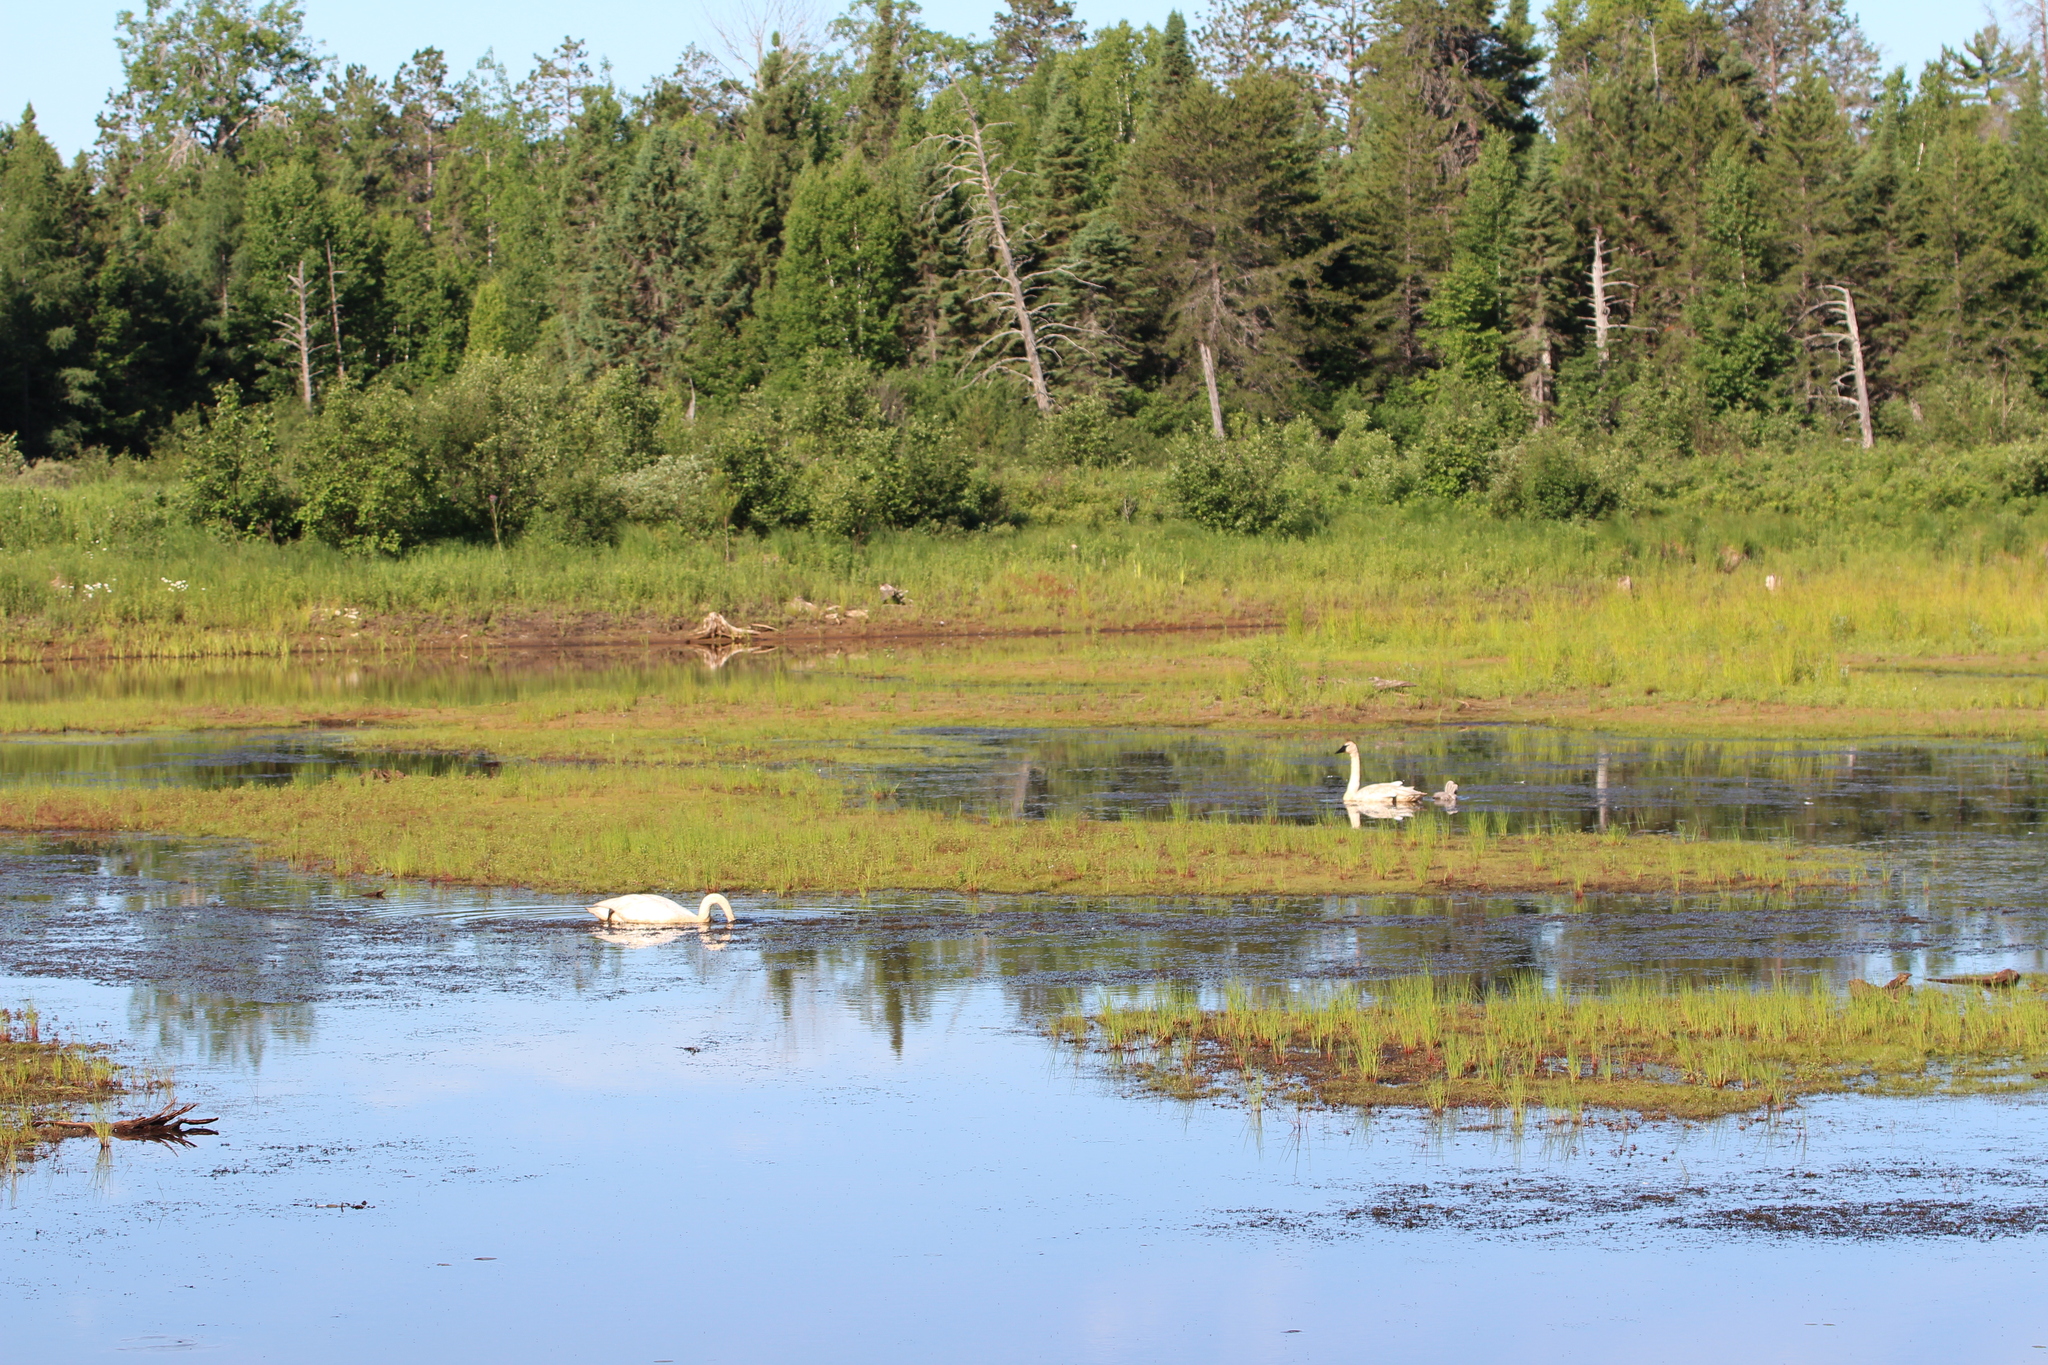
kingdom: Animalia
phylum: Chordata
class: Aves
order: Anseriformes
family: Anatidae
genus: Cygnus
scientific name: Cygnus buccinator
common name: Trumpeter swan
